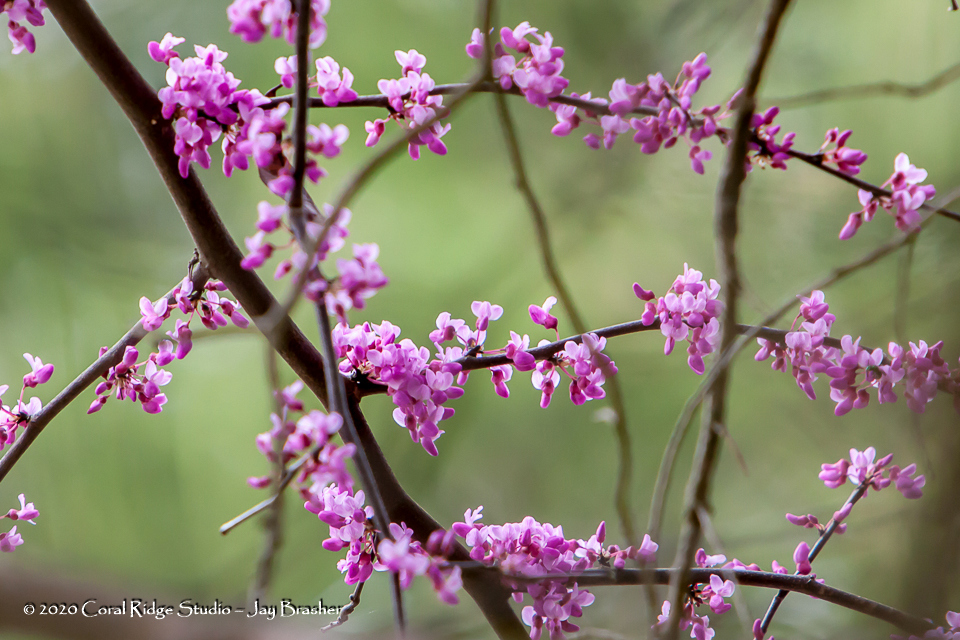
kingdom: Plantae
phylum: Tracheophyta
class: Magnoliopsida
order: Fabales
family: Fabaceae
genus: Cercis
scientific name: Cercis canadensis
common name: Eastern redbud
